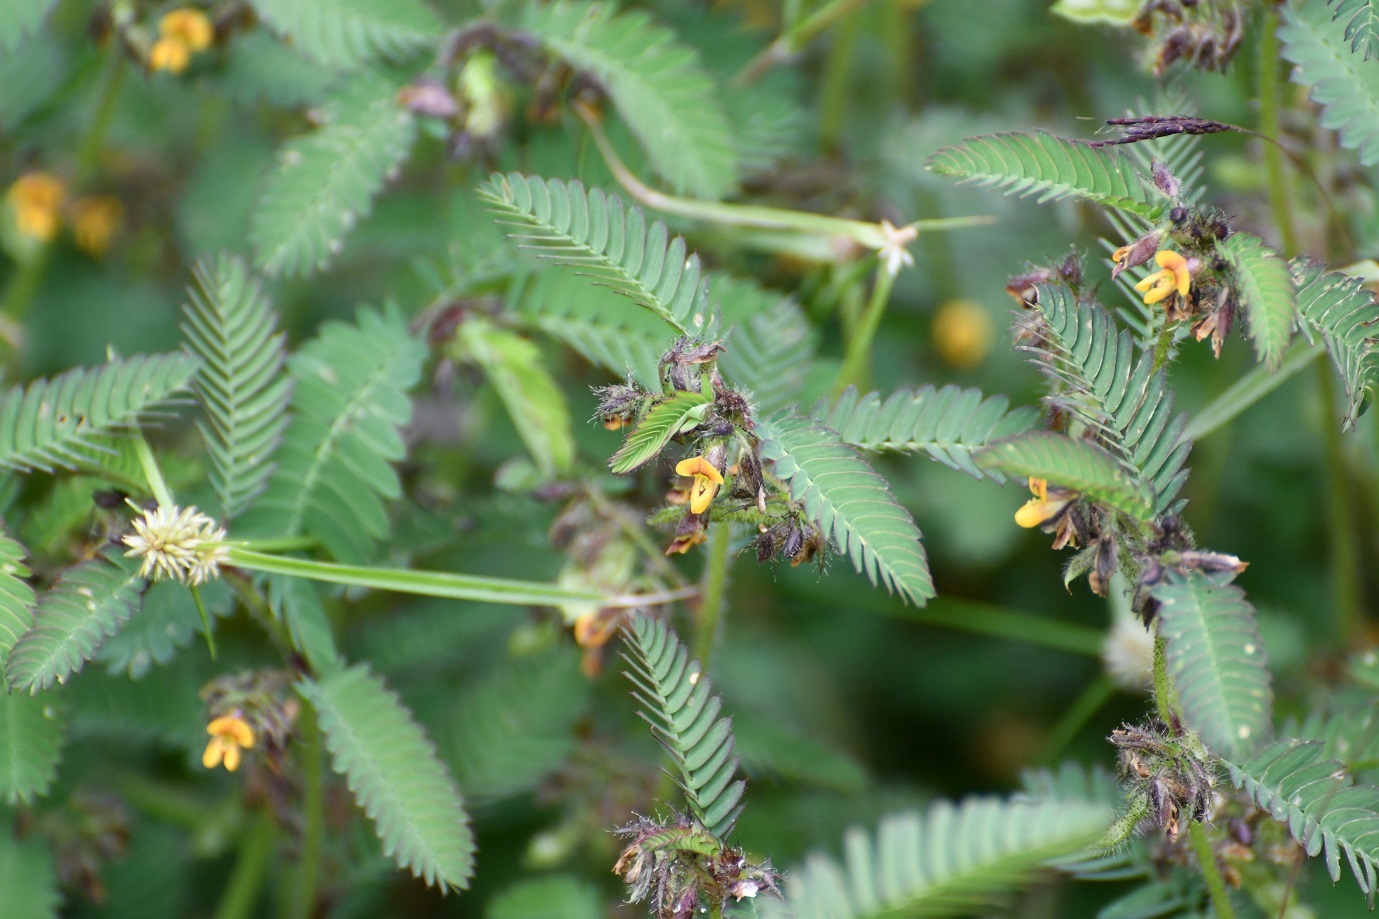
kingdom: Plantae
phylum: Tracheophyta
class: Magnoliopsida
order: Fabales
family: Fabaceae
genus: Aeschynomene
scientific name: Aeschynomene villosa
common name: Hairy-jointvetch
